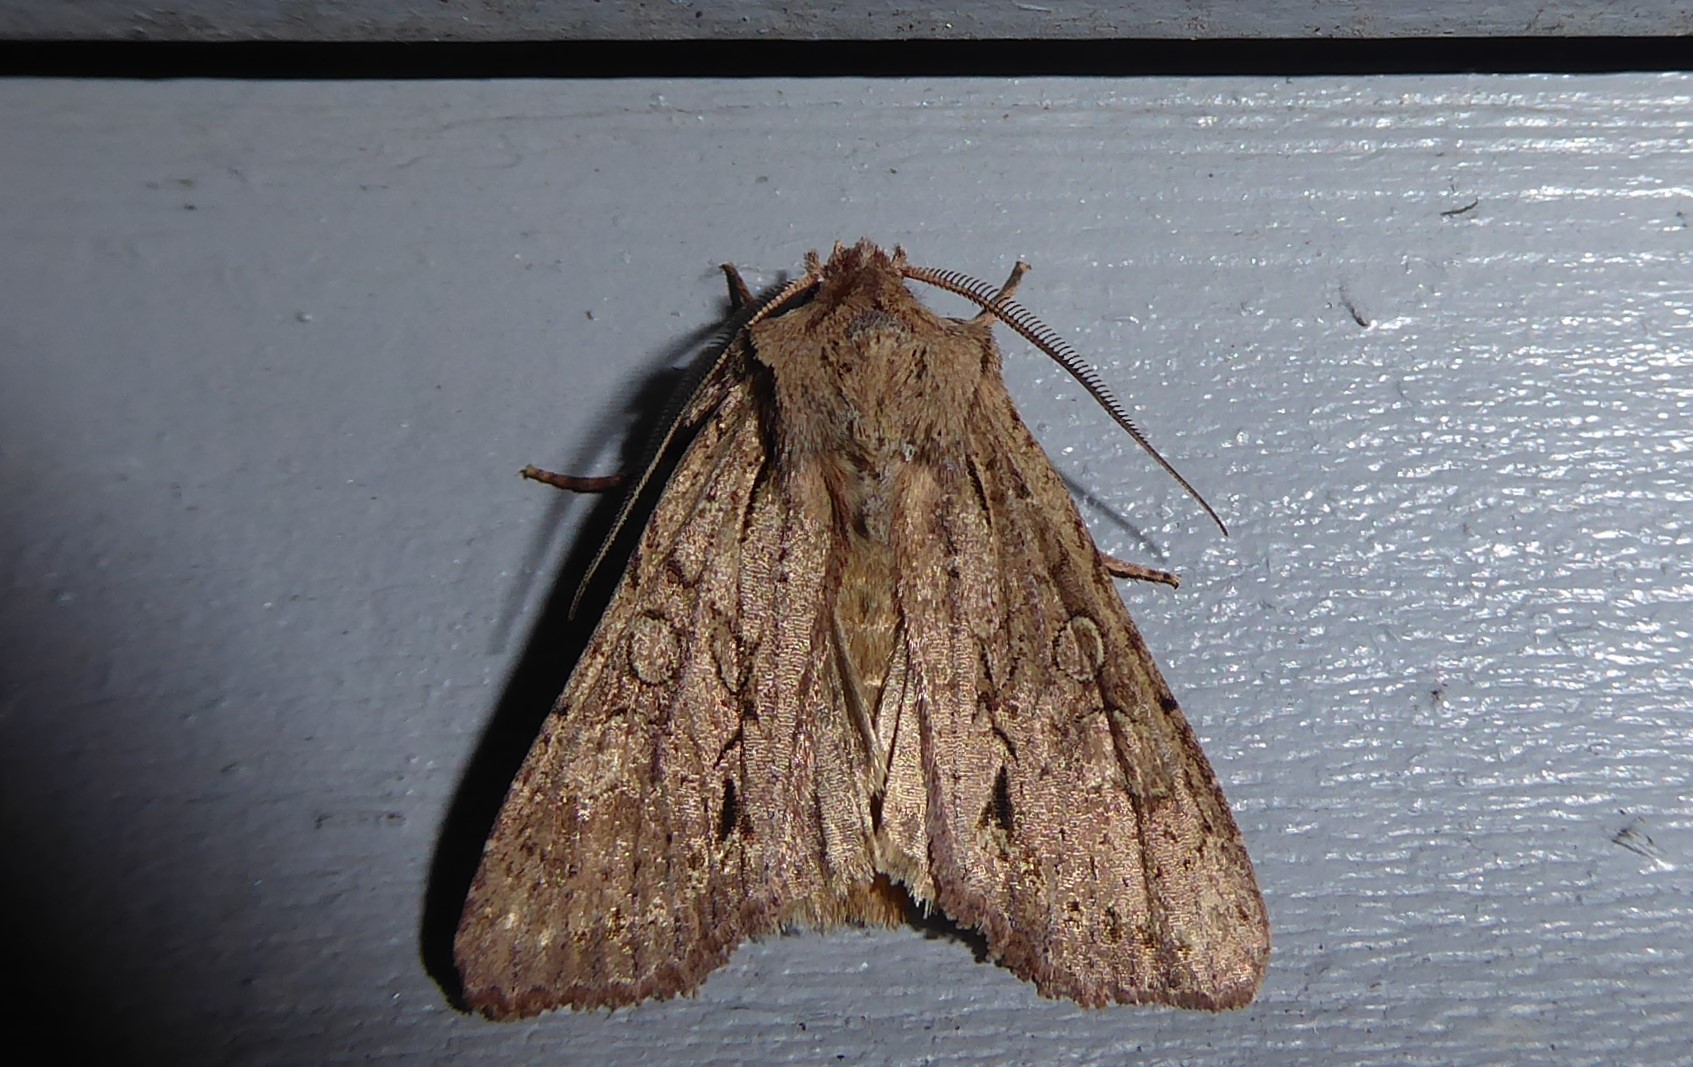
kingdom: Animalia
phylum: Arthropoda
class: Insecta
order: Lepidoptera
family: Noctuidae
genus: Ichneutica
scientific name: Ichneutica
